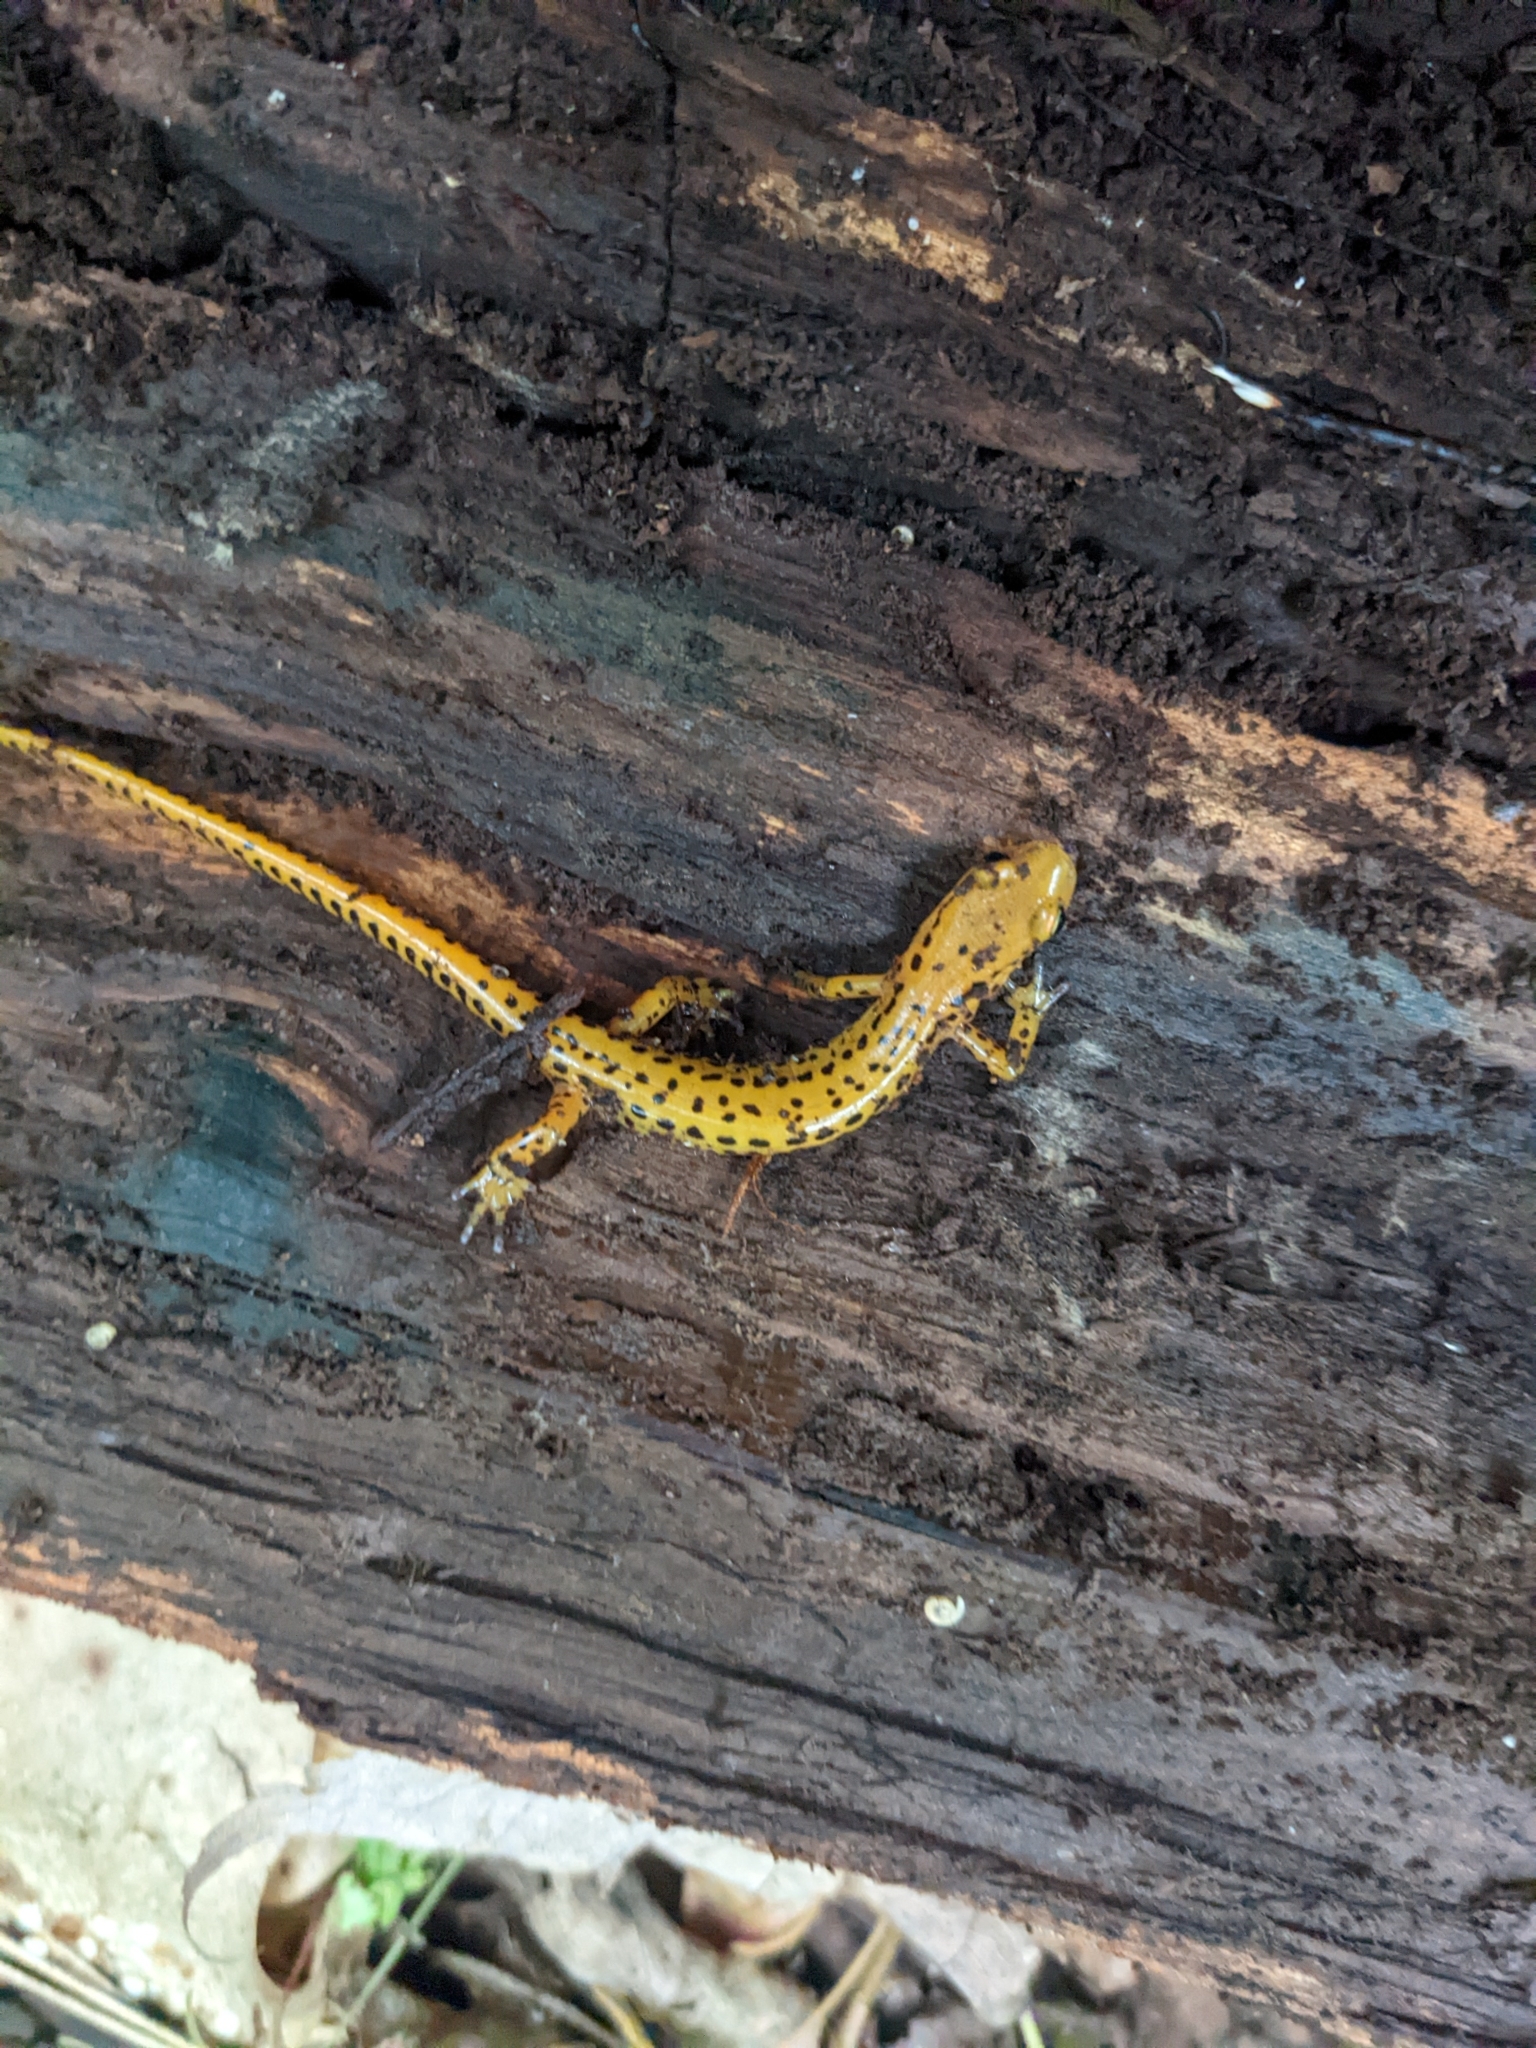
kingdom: Animalia
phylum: Chordata
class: Amphibia
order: Caudata
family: Plethodontidae
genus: Eurycea
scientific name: Eurycea longicauda
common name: Long-tailed salamander
